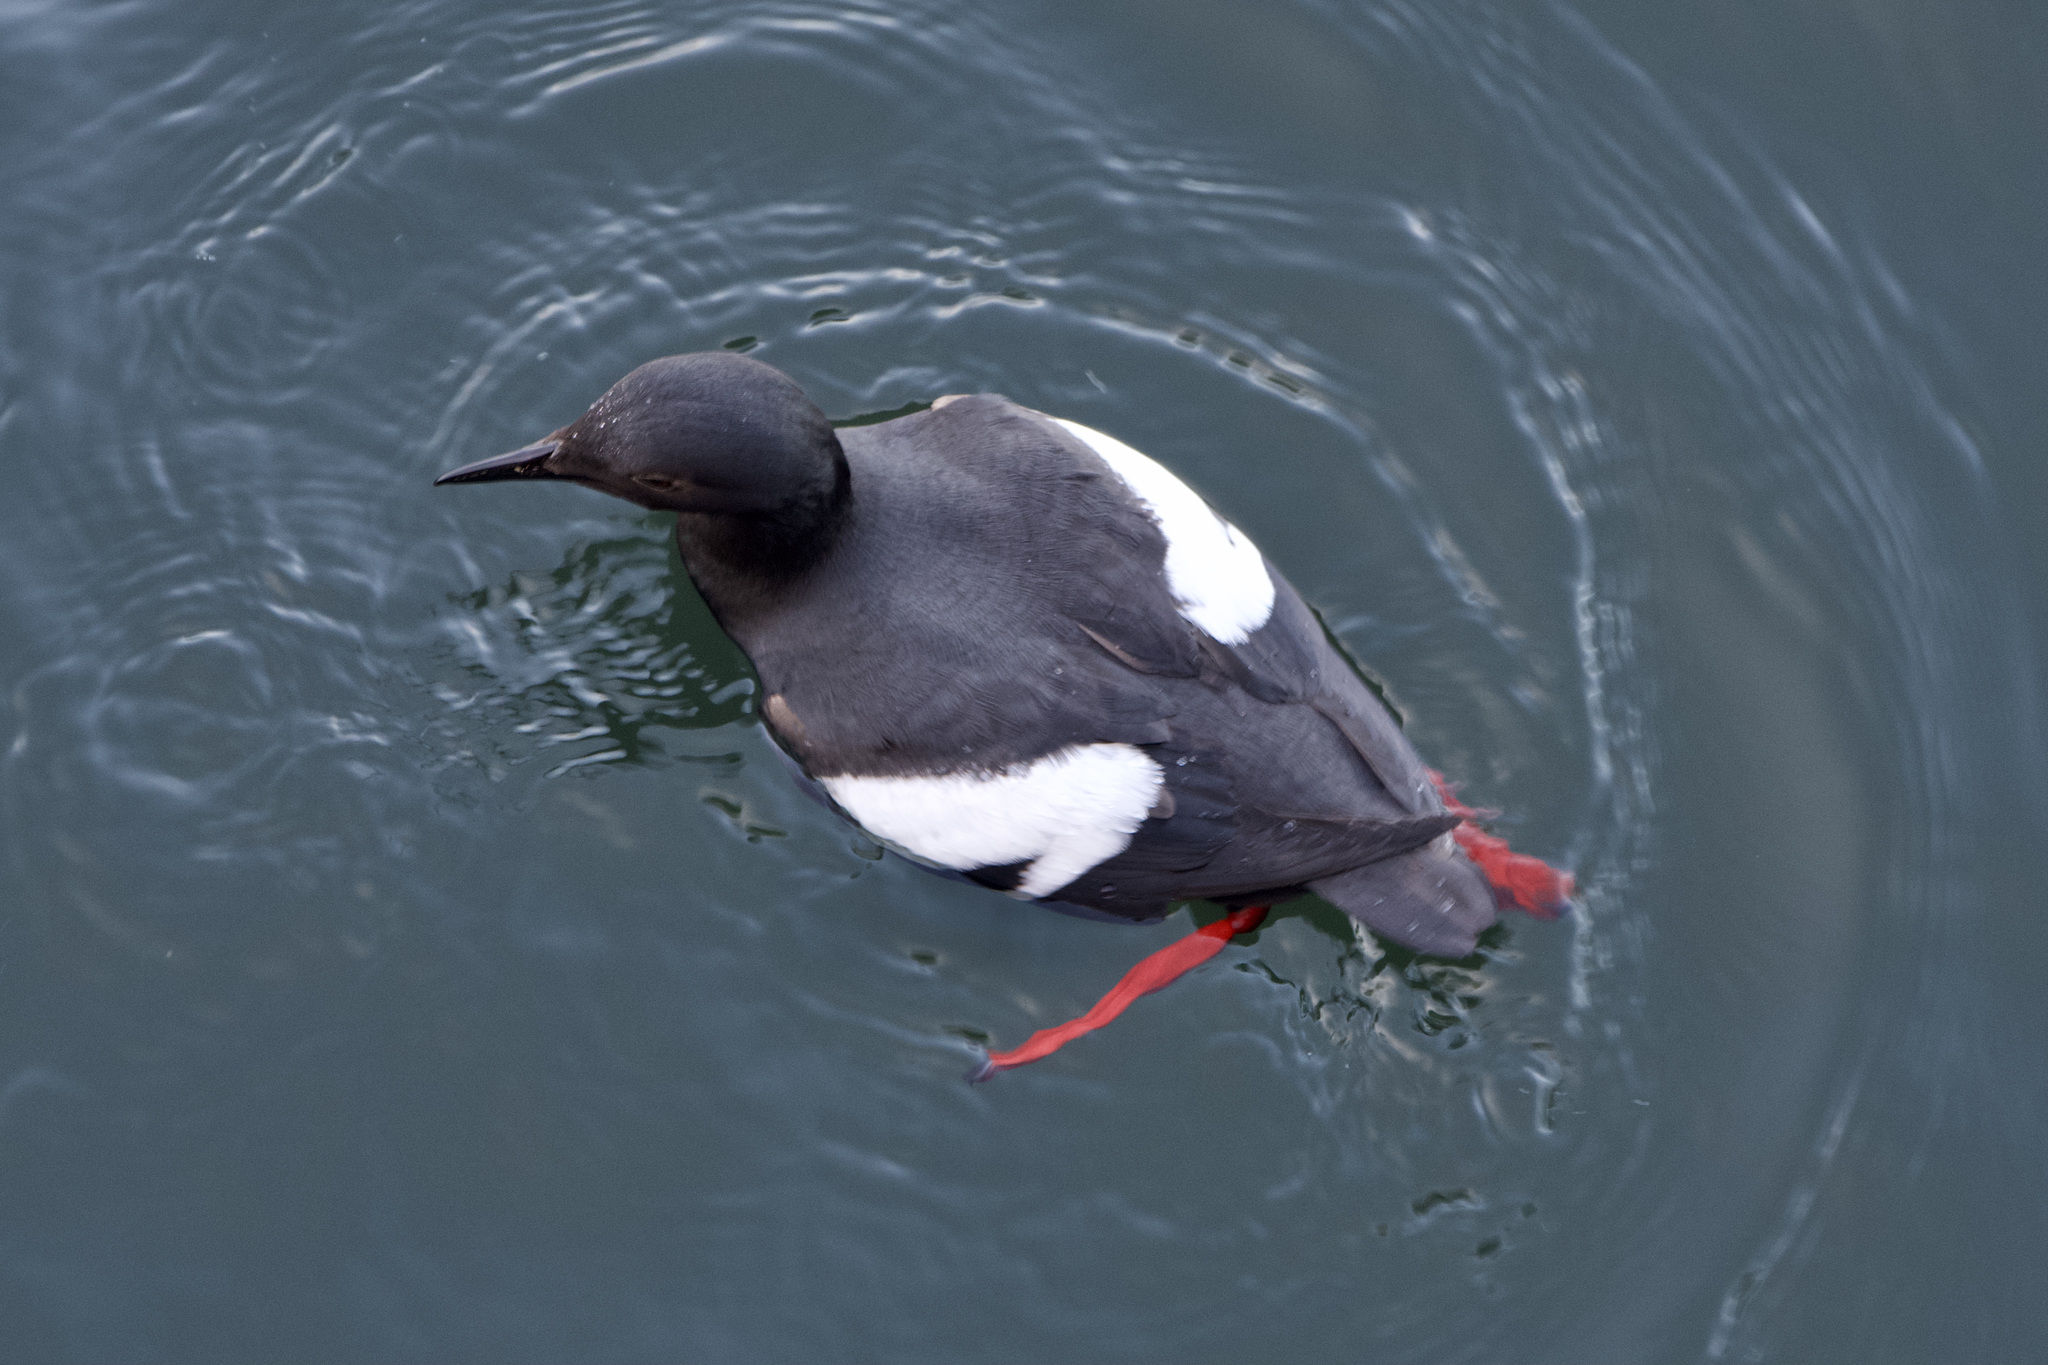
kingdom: Animalia
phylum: Chordata
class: Aves
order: Charadriiformes
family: Alcidae
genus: Cepphus
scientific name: Cepphus columba
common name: Pigeon guillemot
